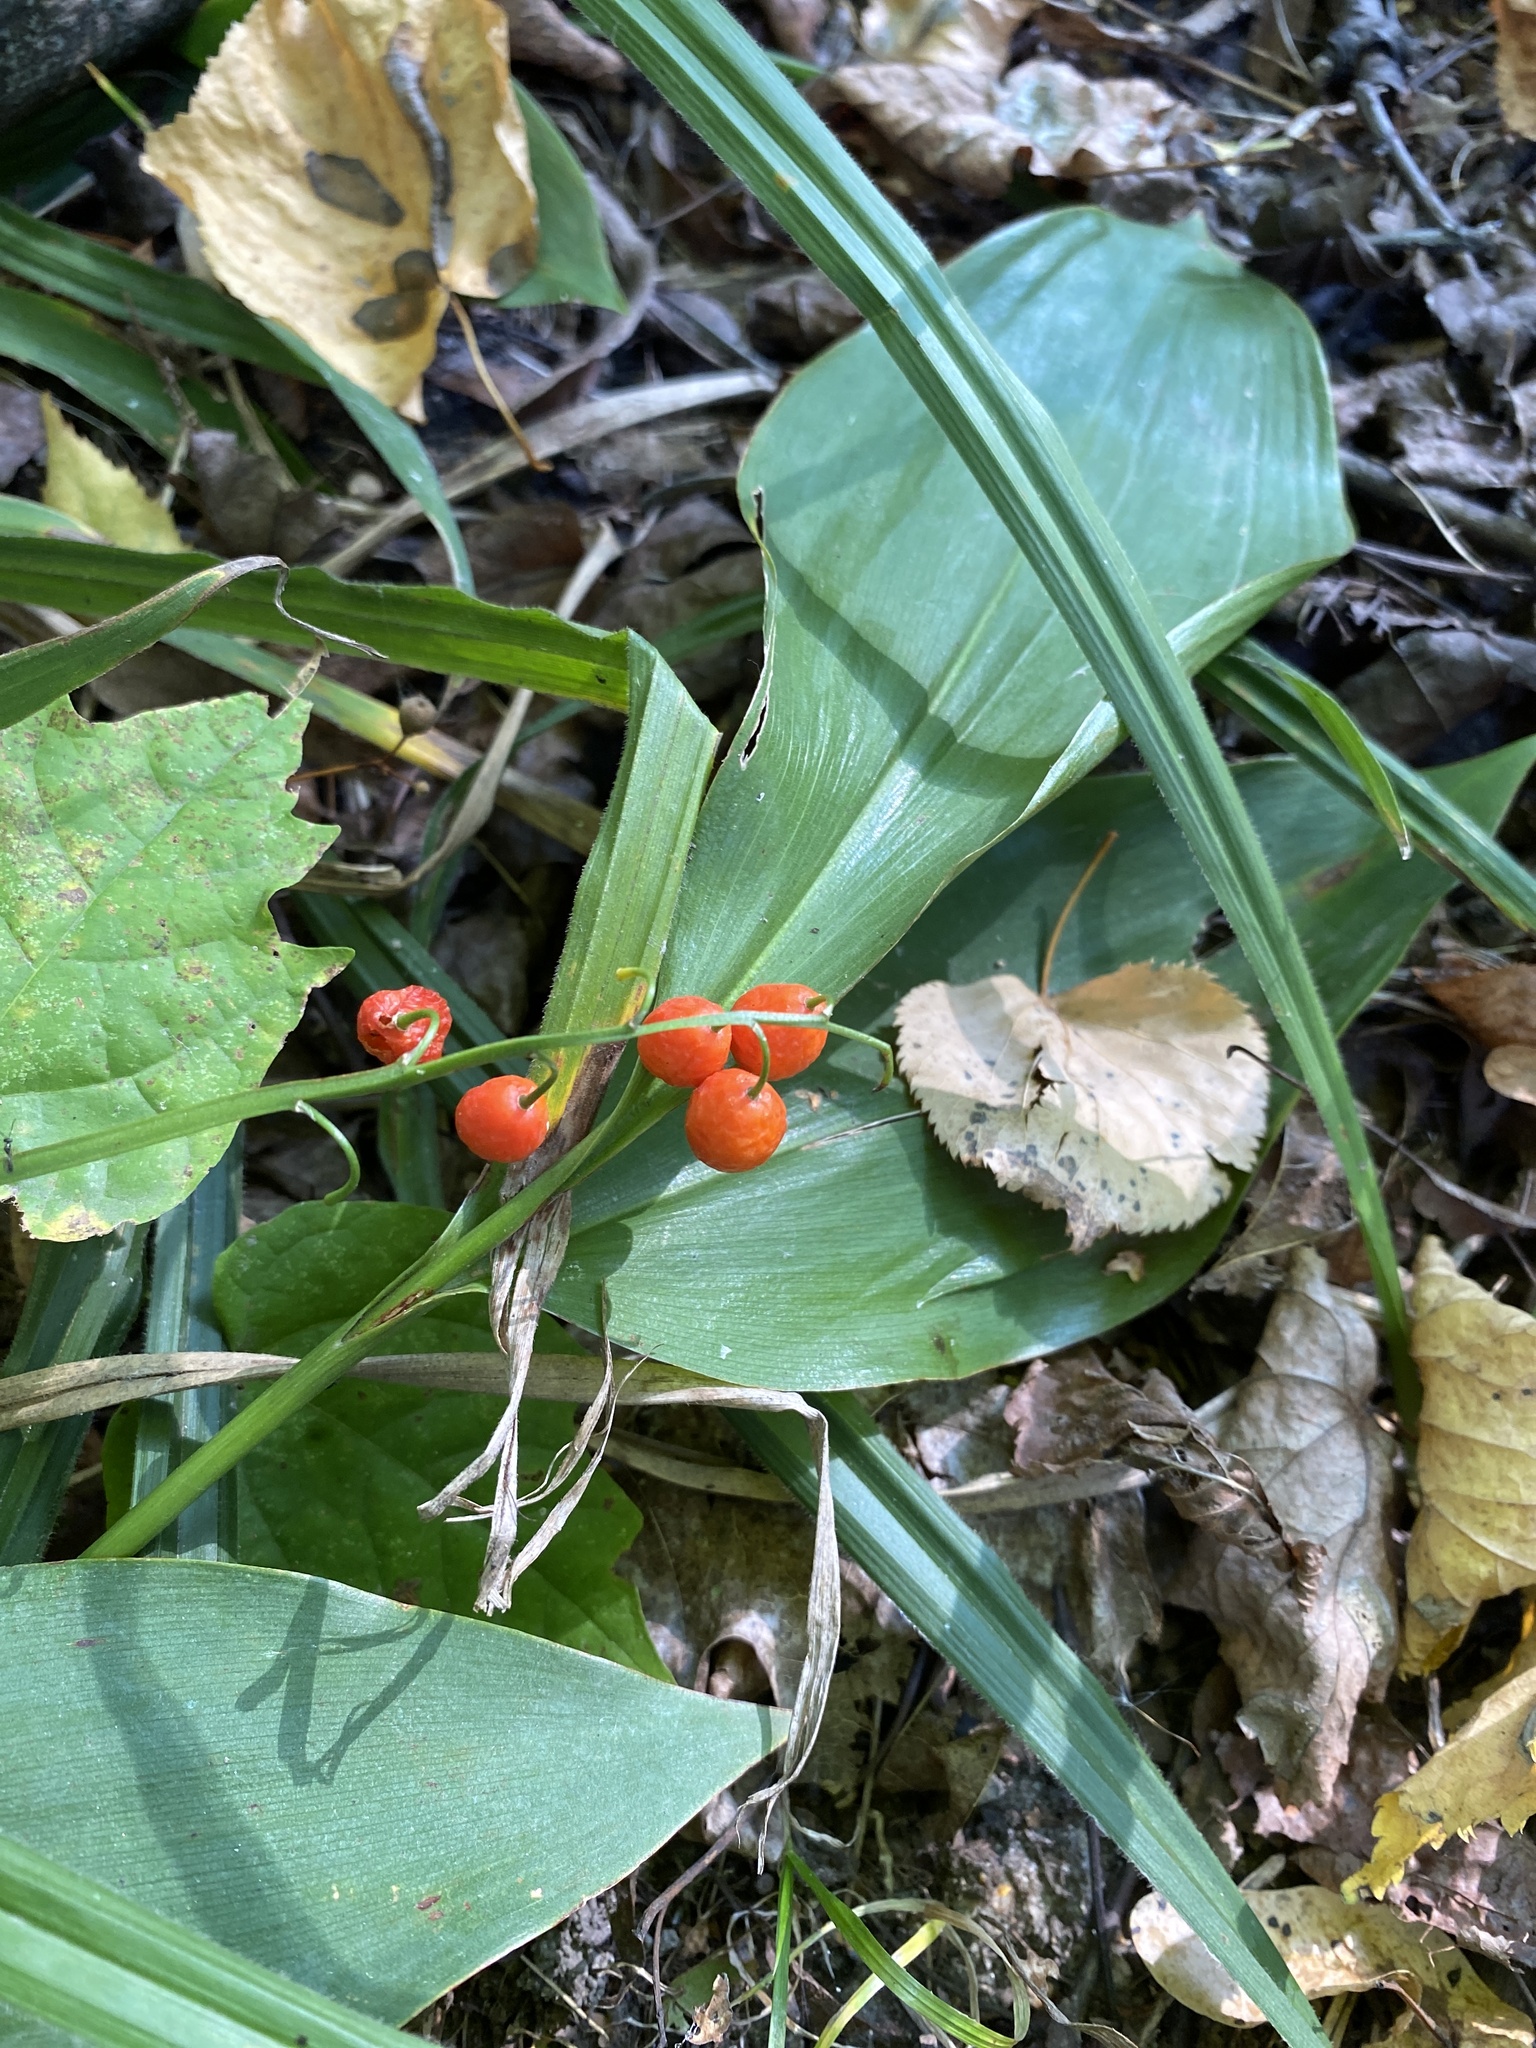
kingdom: Plantae
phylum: Tracheophyta
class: Liliopsida
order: Asparagales
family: Asparagaceae
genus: Convallaria
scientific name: Convallaria majalis
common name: Lily-of-the-valley
